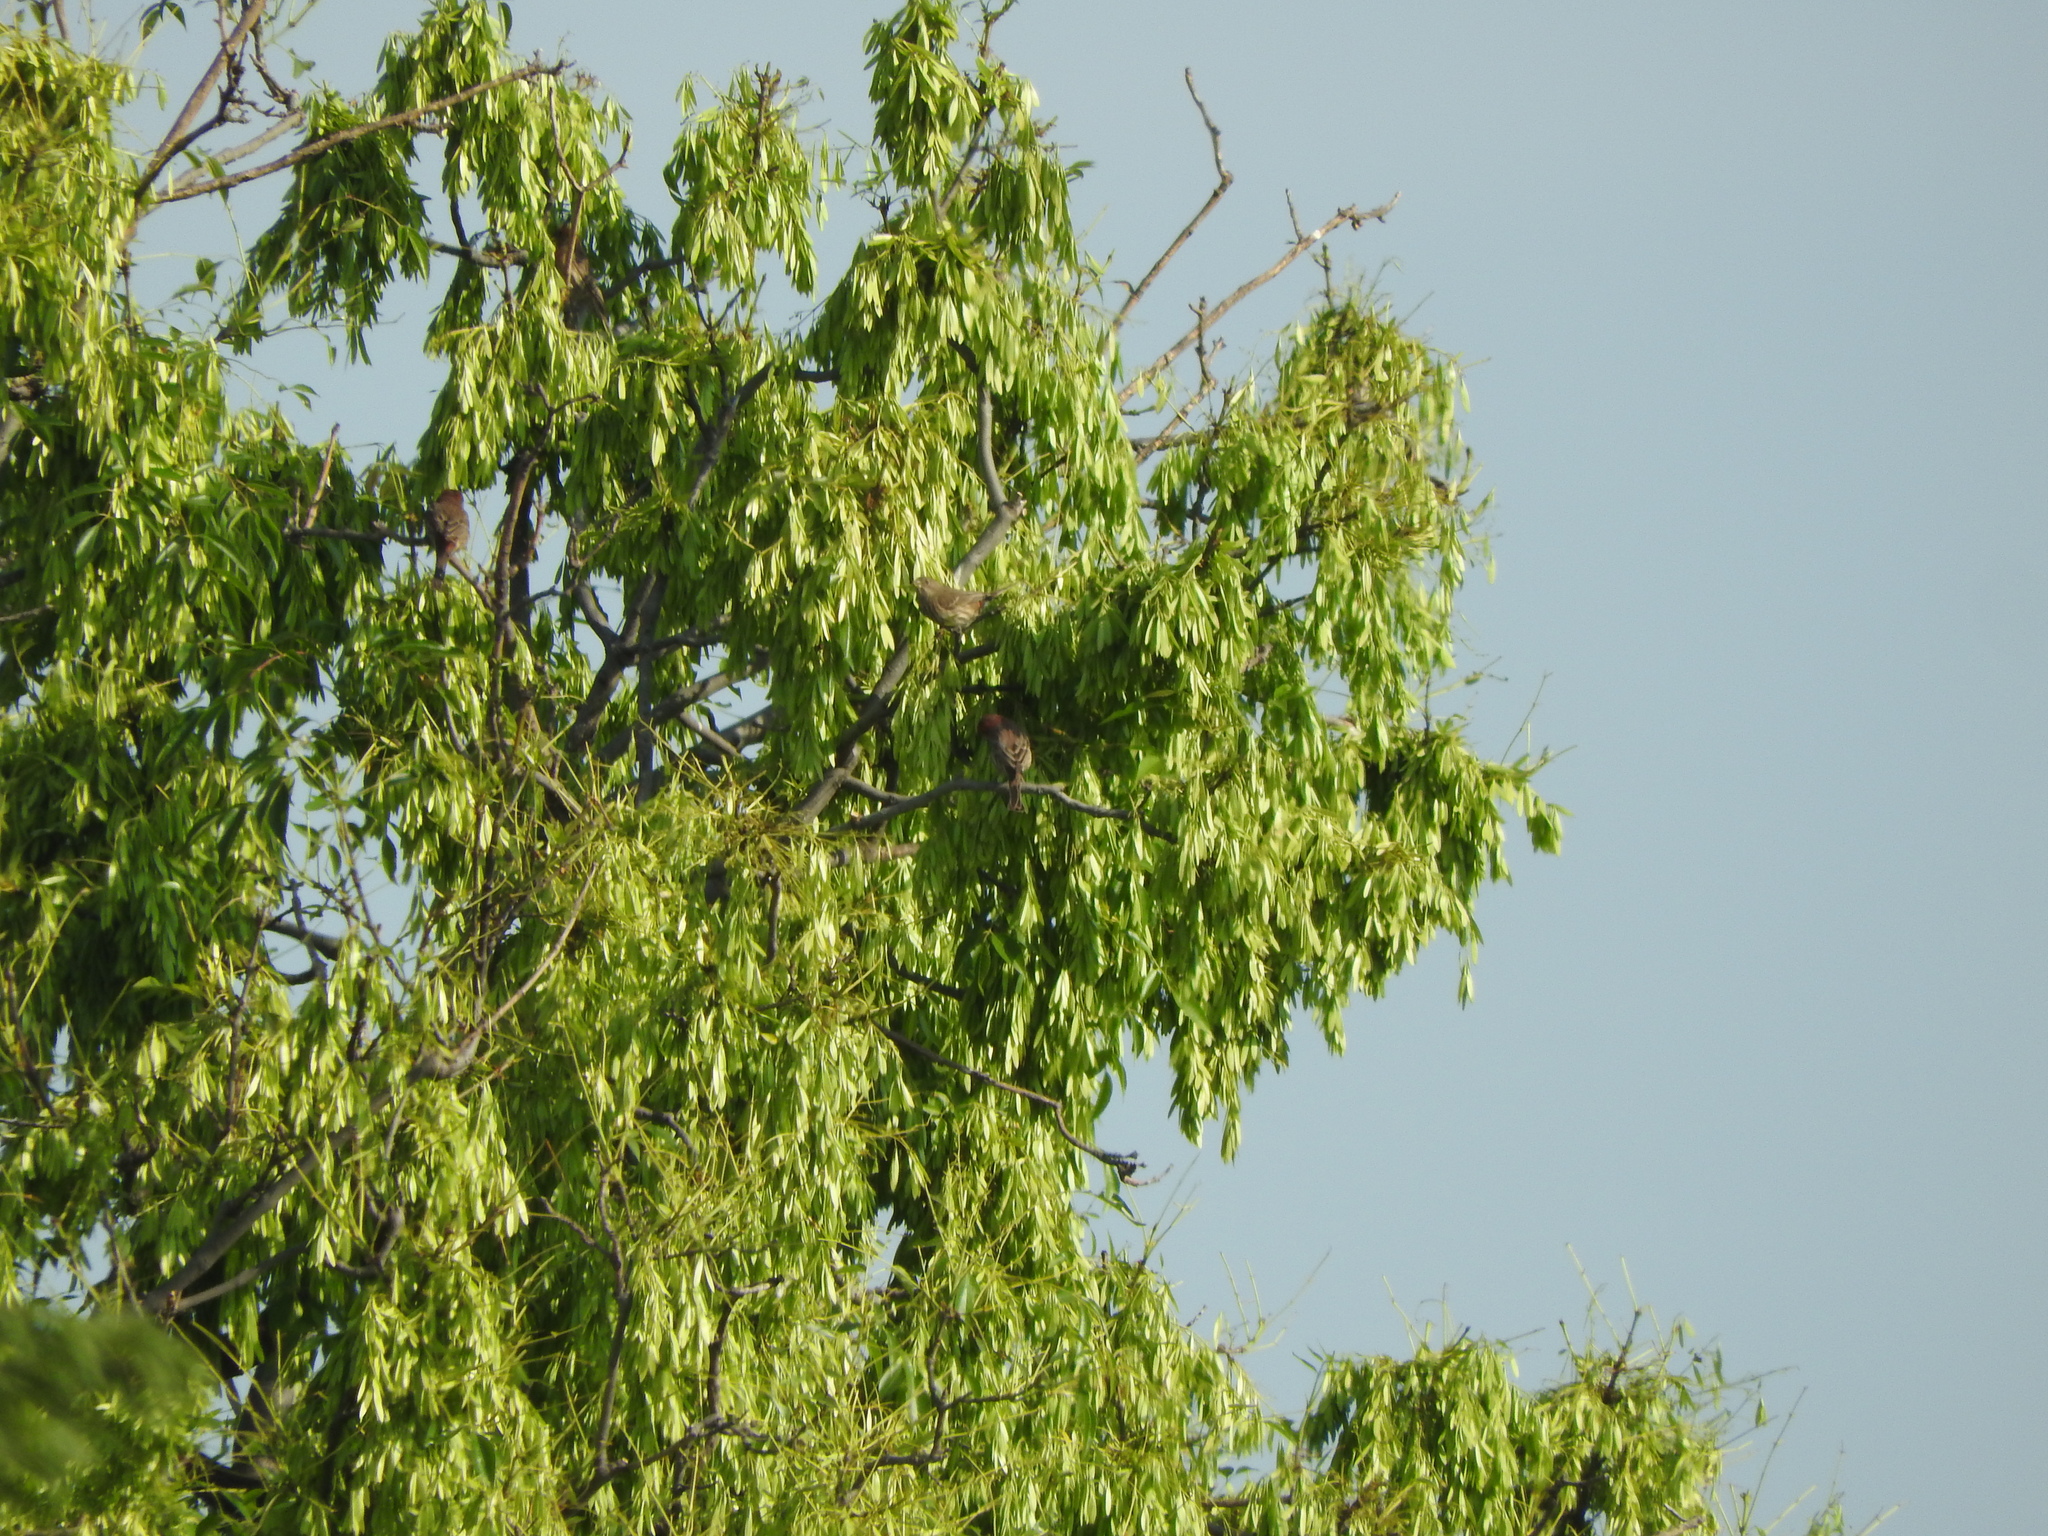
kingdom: Animalia
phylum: Chordata
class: Aves
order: Passeriformes
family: Fringillidae
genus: Haemorhous
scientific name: Haemorhous mexicanus
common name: House finch
